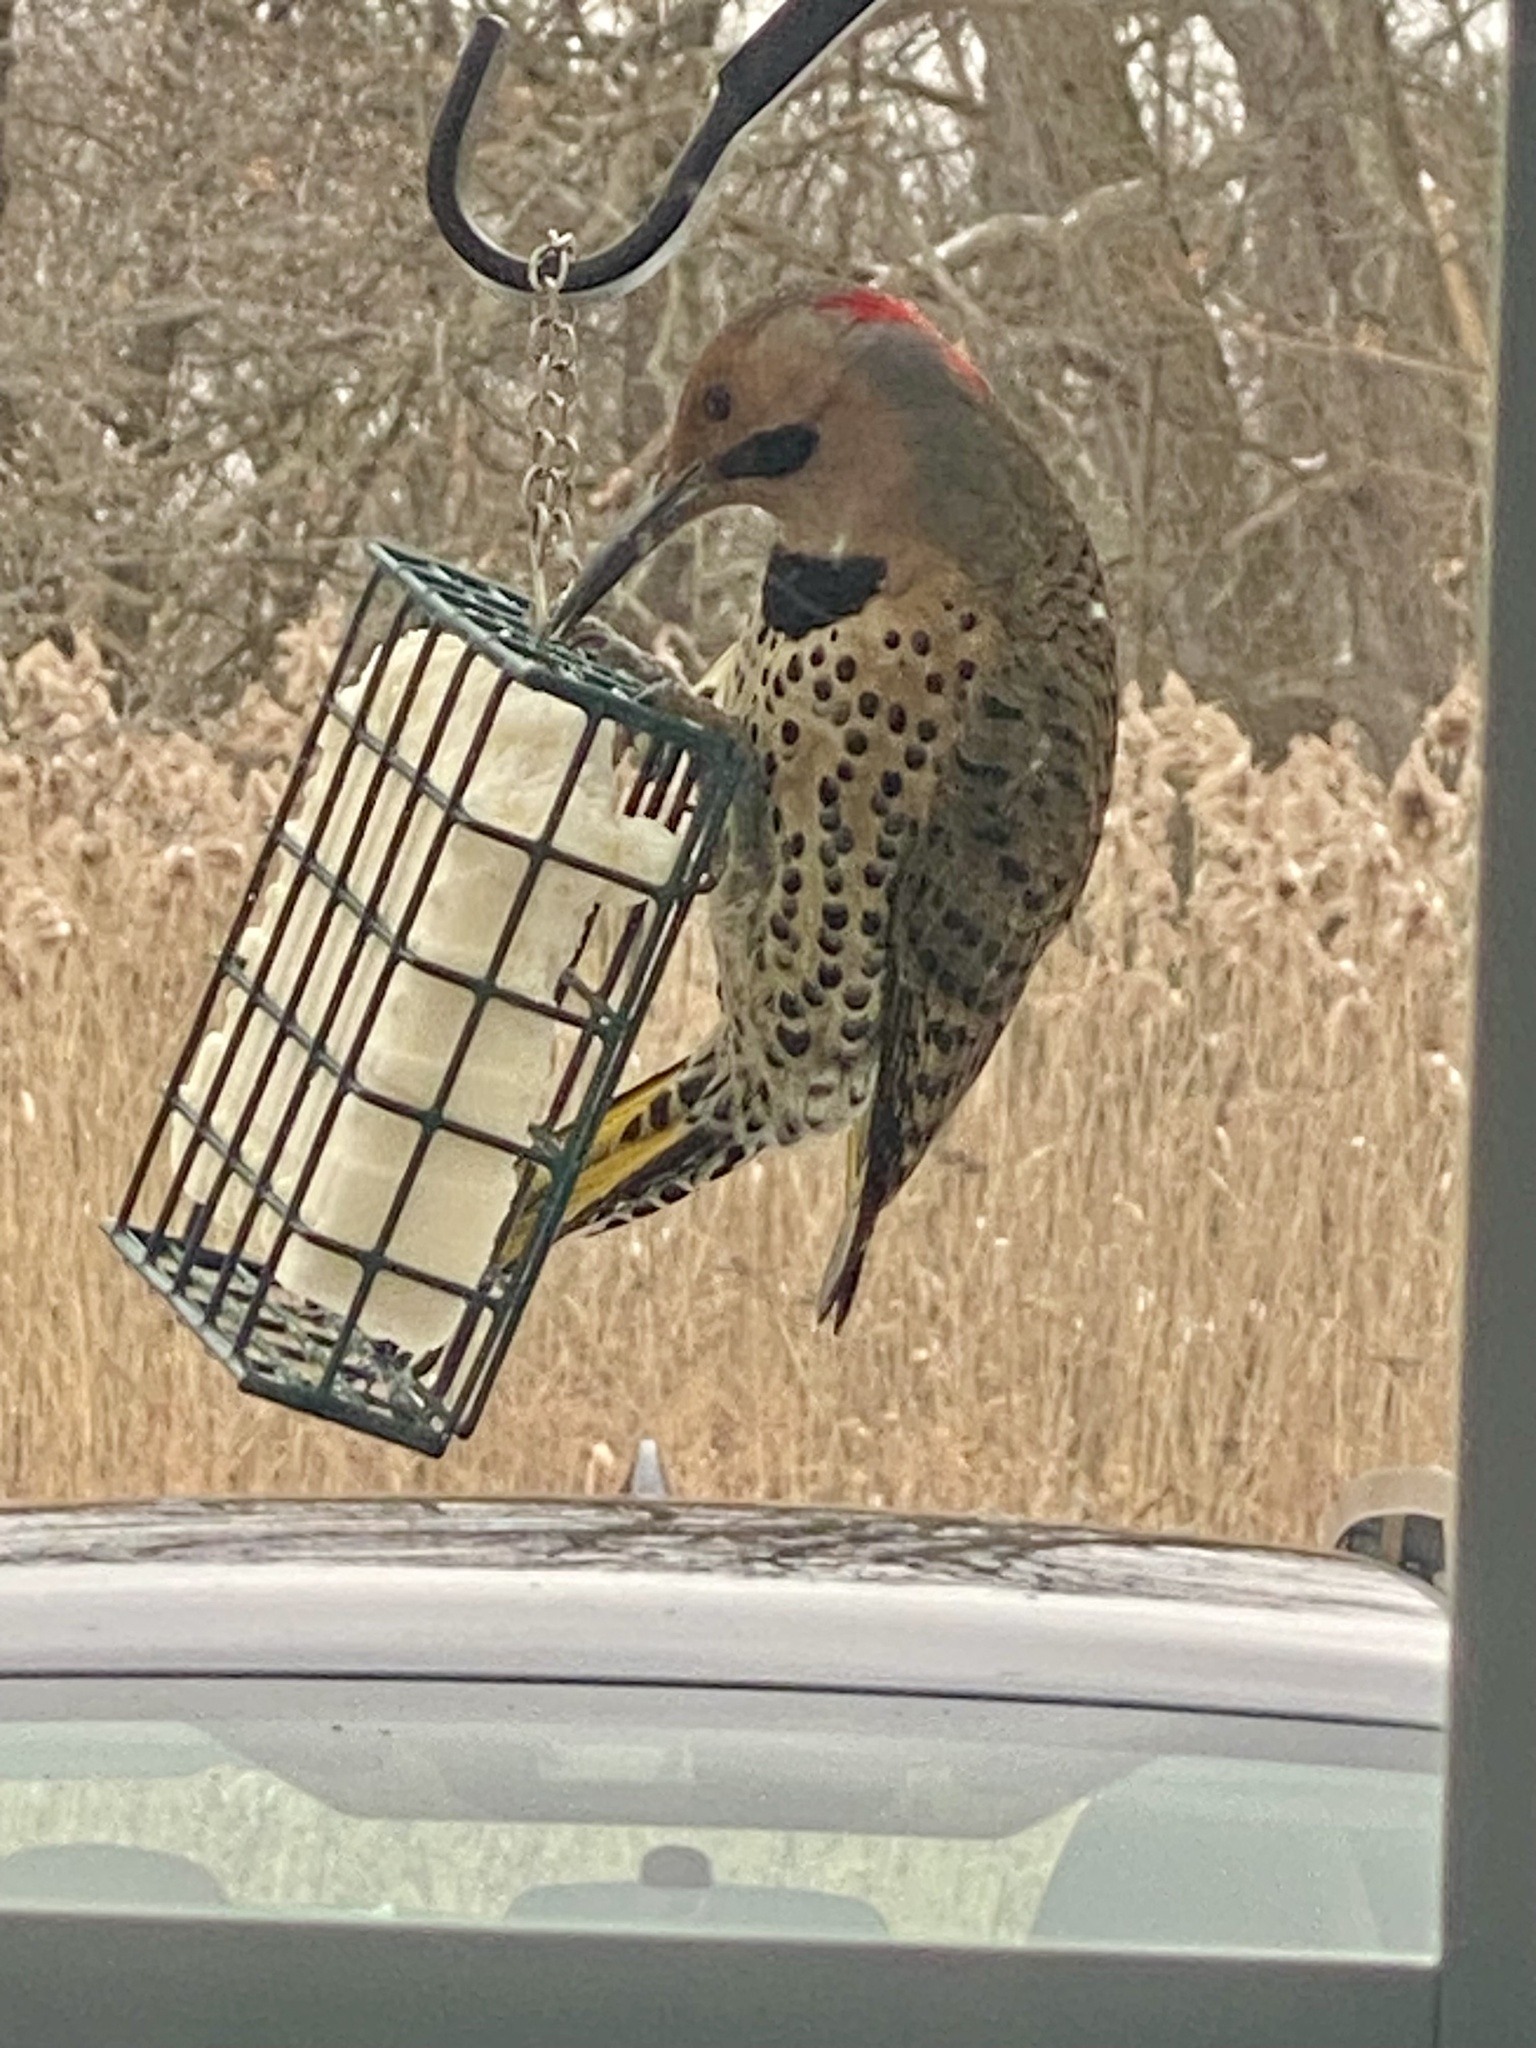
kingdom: Animalia
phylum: Chordata
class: Aves
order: Piciformes
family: Picidae
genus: Colaptes
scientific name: Colaptes auratus
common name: Northern flicker
